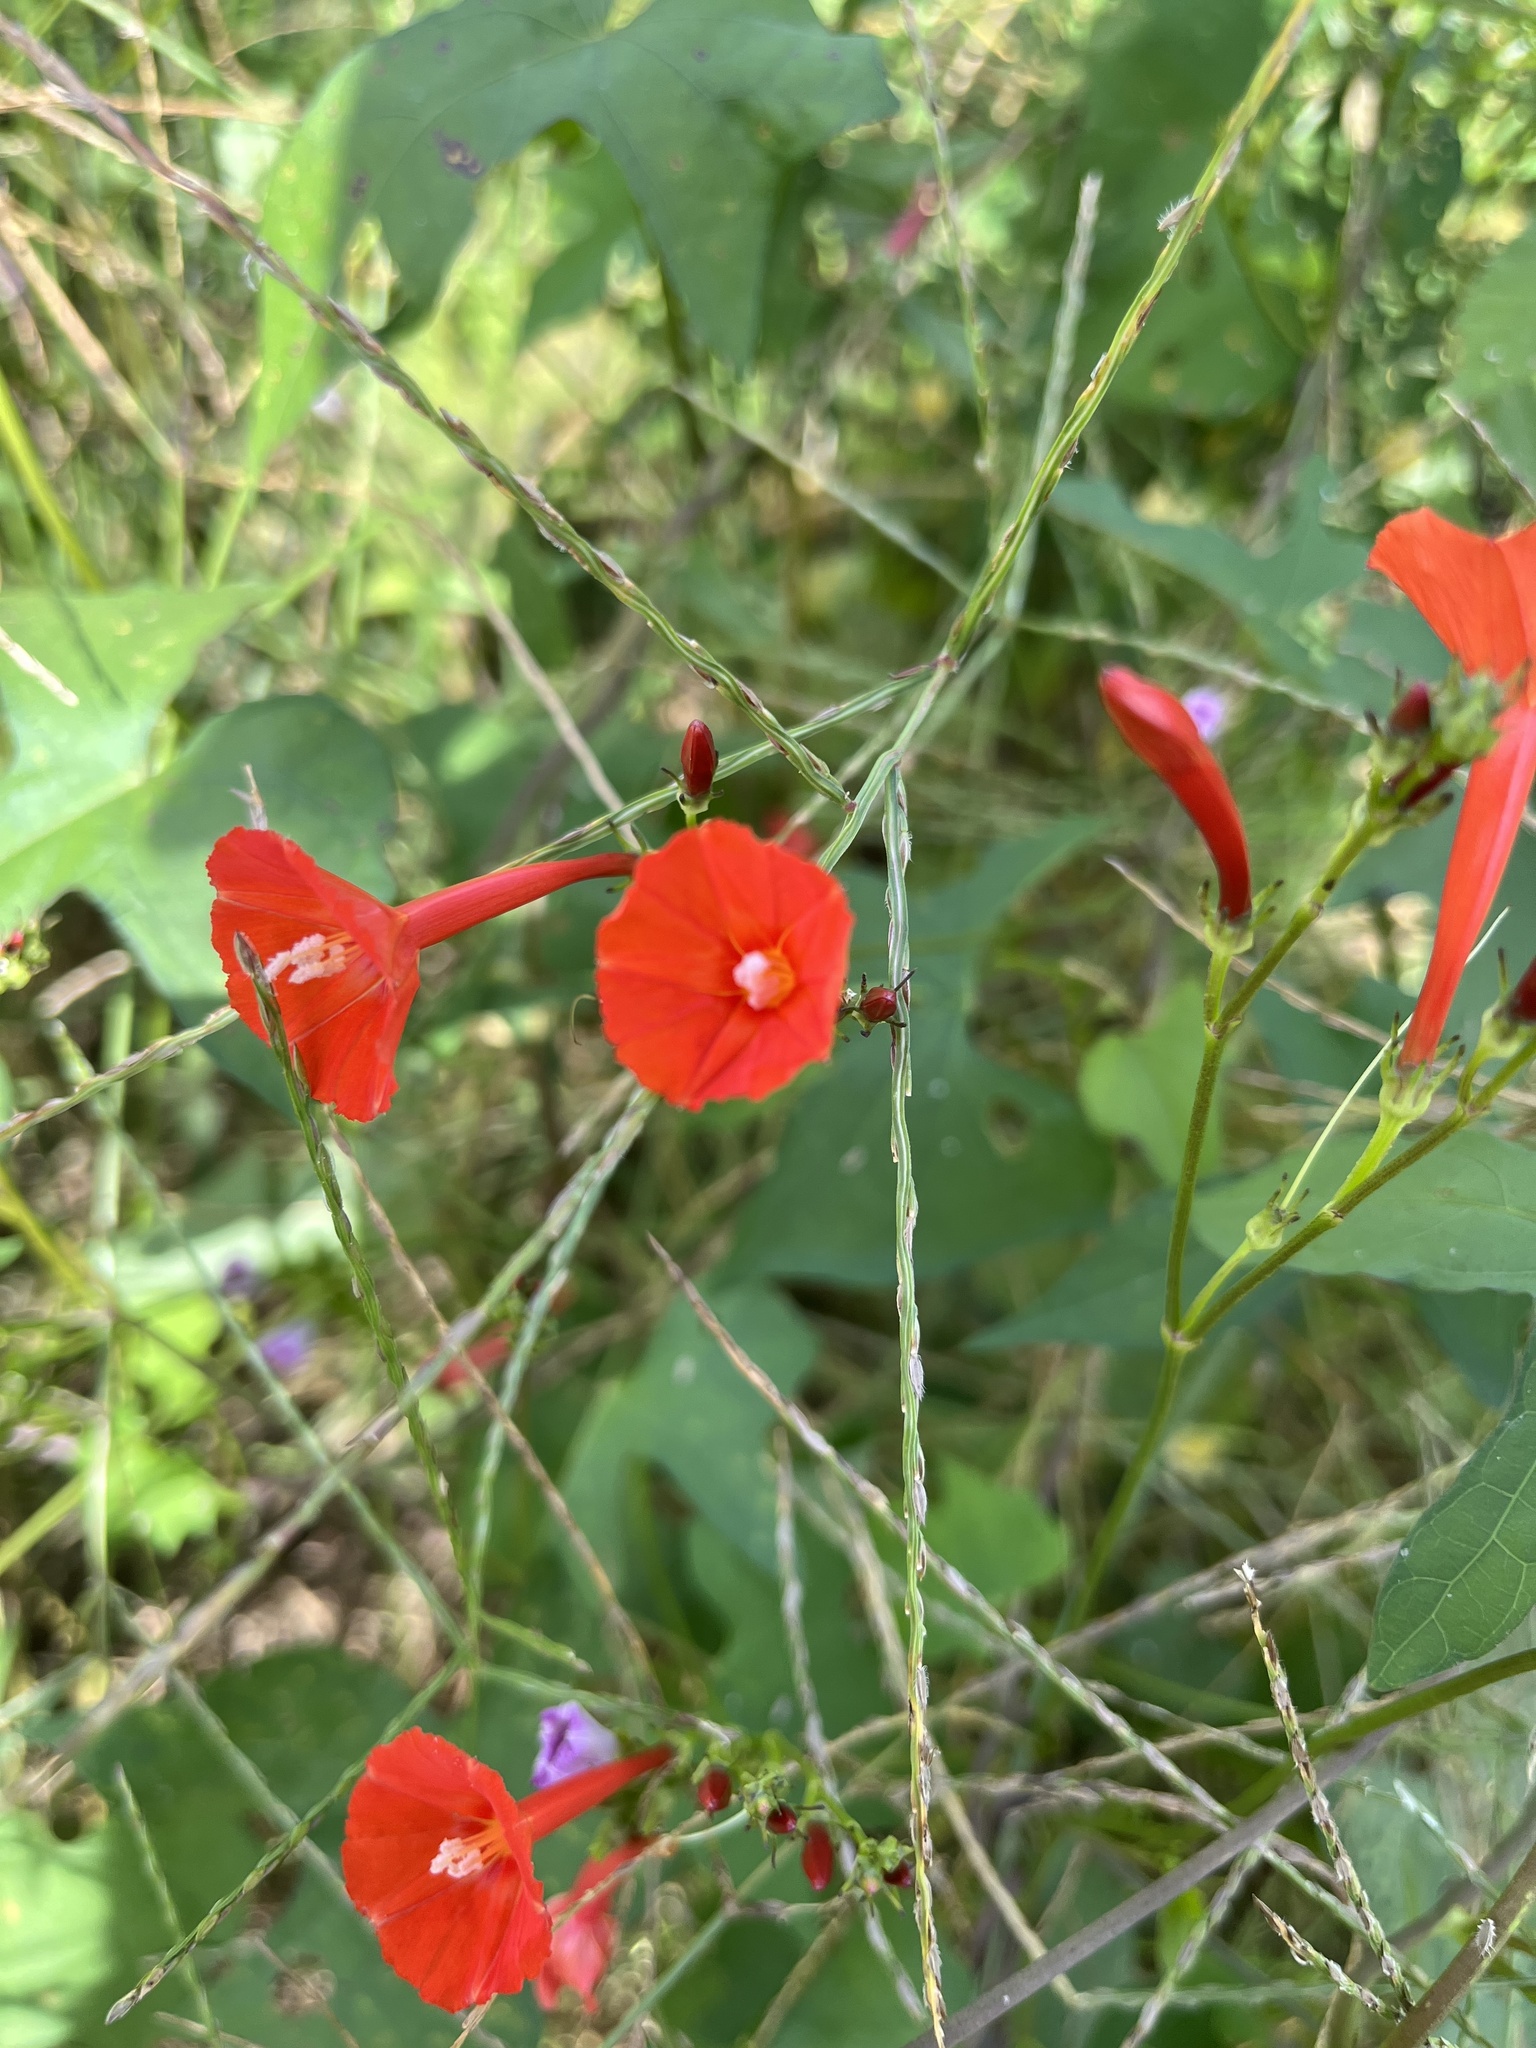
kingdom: Plantae
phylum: Tracheophyta
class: Magnoliopsida
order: Solanales
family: Convolvulaceae
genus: Ipomoea
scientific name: Ipomoea hederifolia
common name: Ivy-leaf morning-glory
